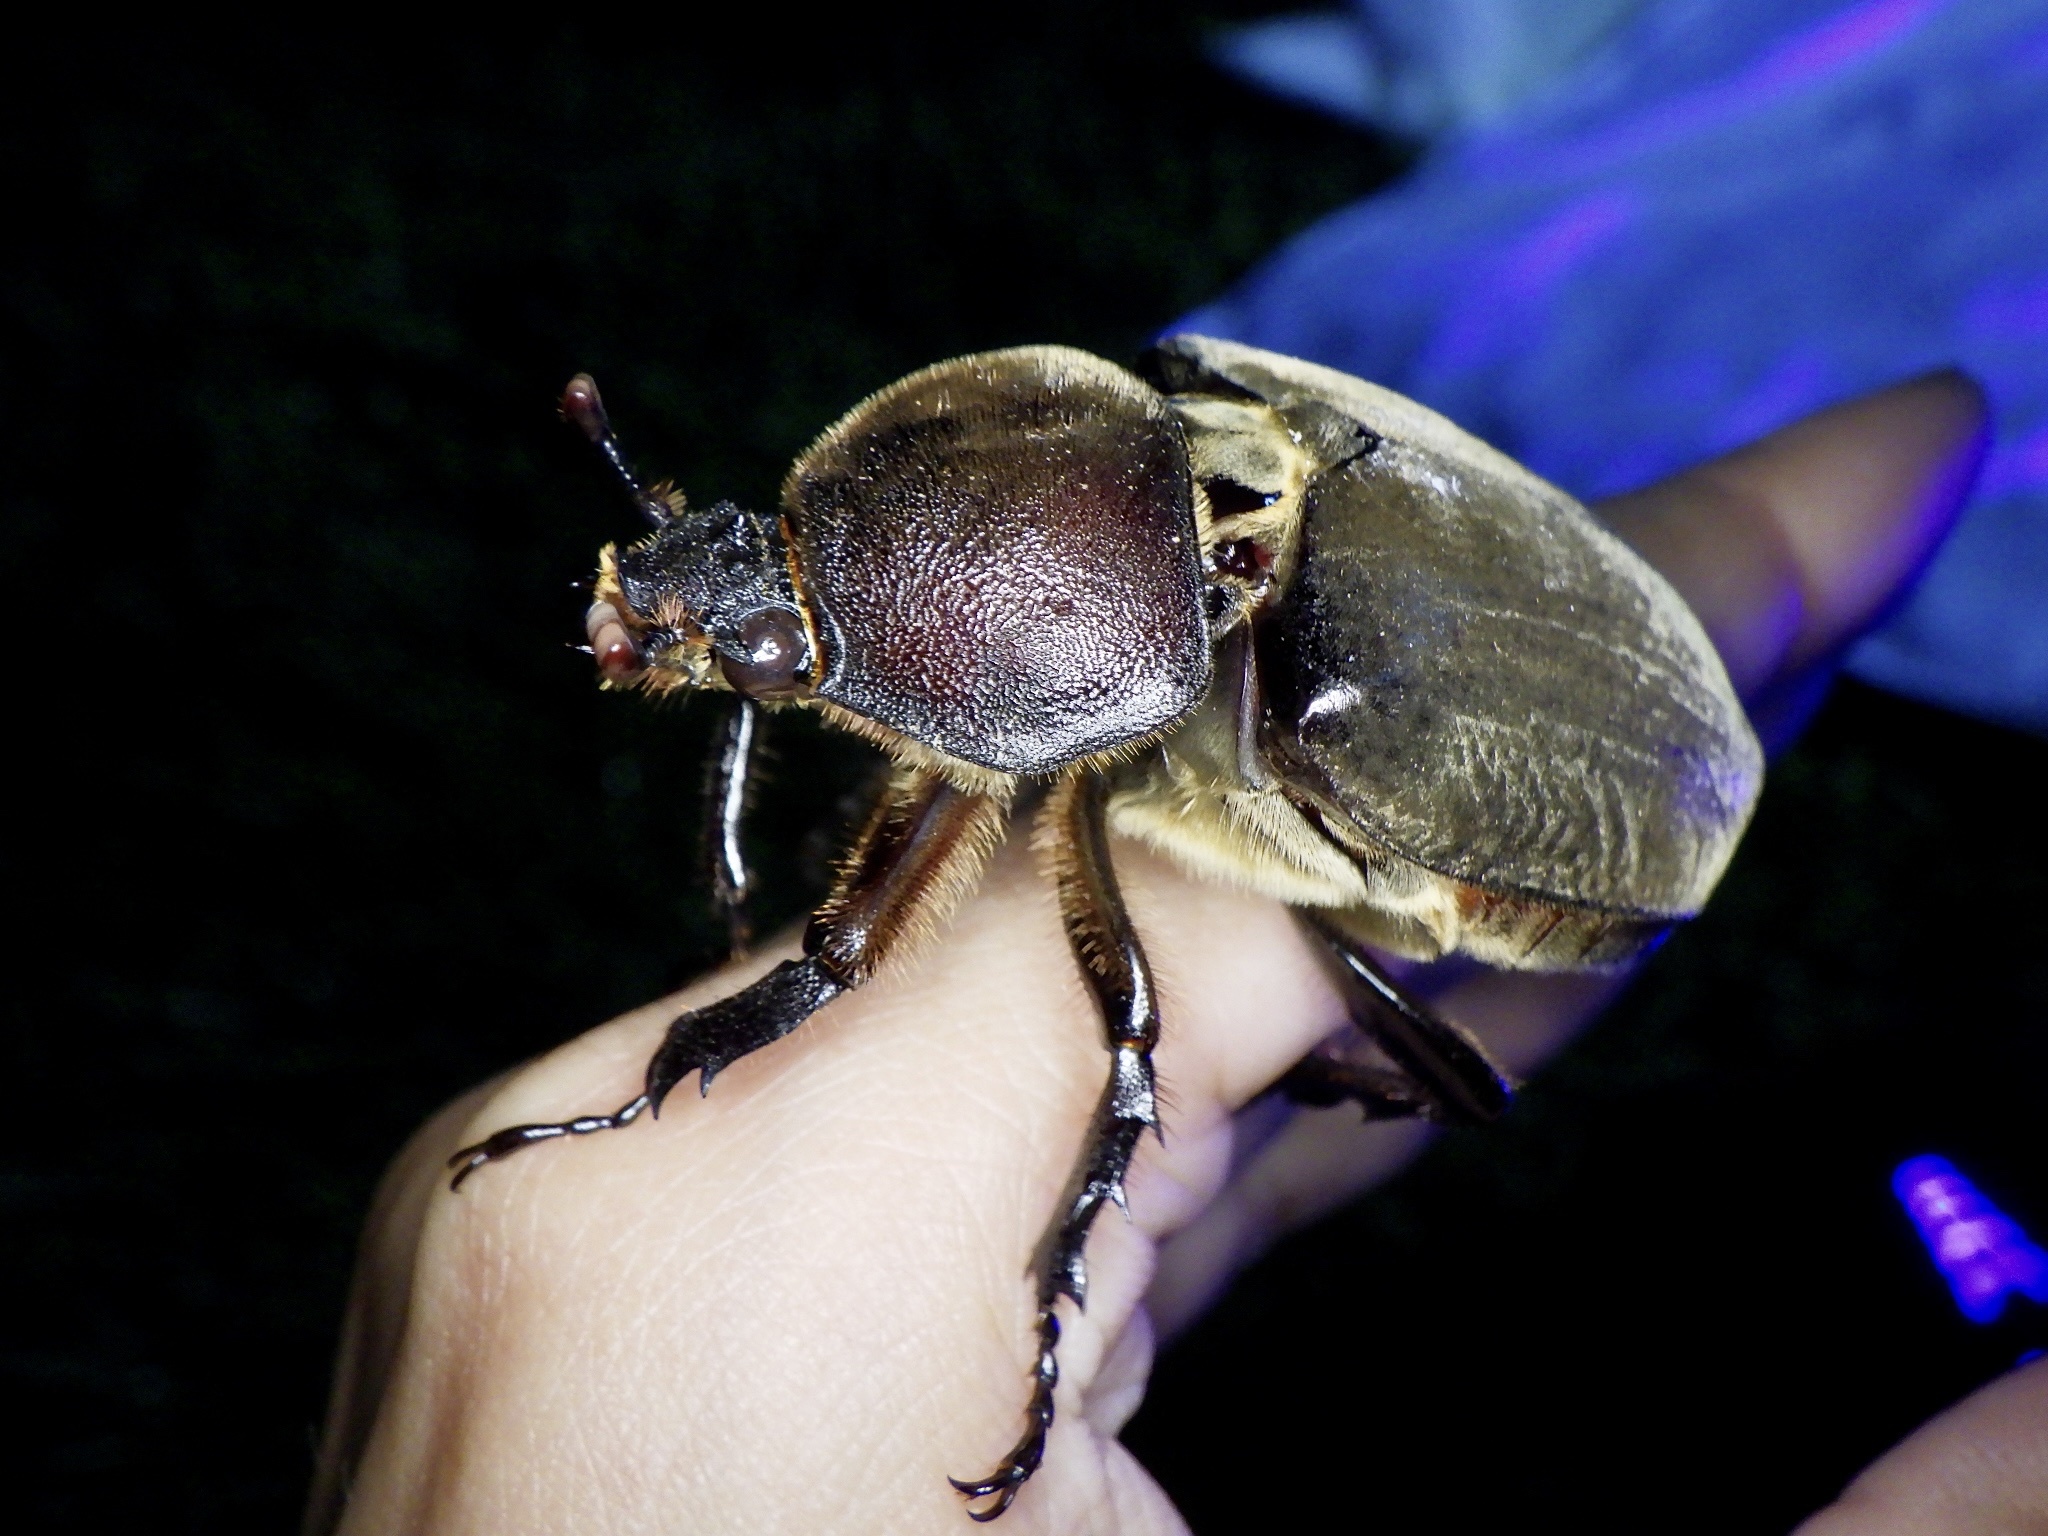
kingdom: Animalia
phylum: Arthropoda
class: Insecta
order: Coleoptera
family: Scarabaeidae
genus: Trypoxylus
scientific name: Trypoxylus dichotomus
